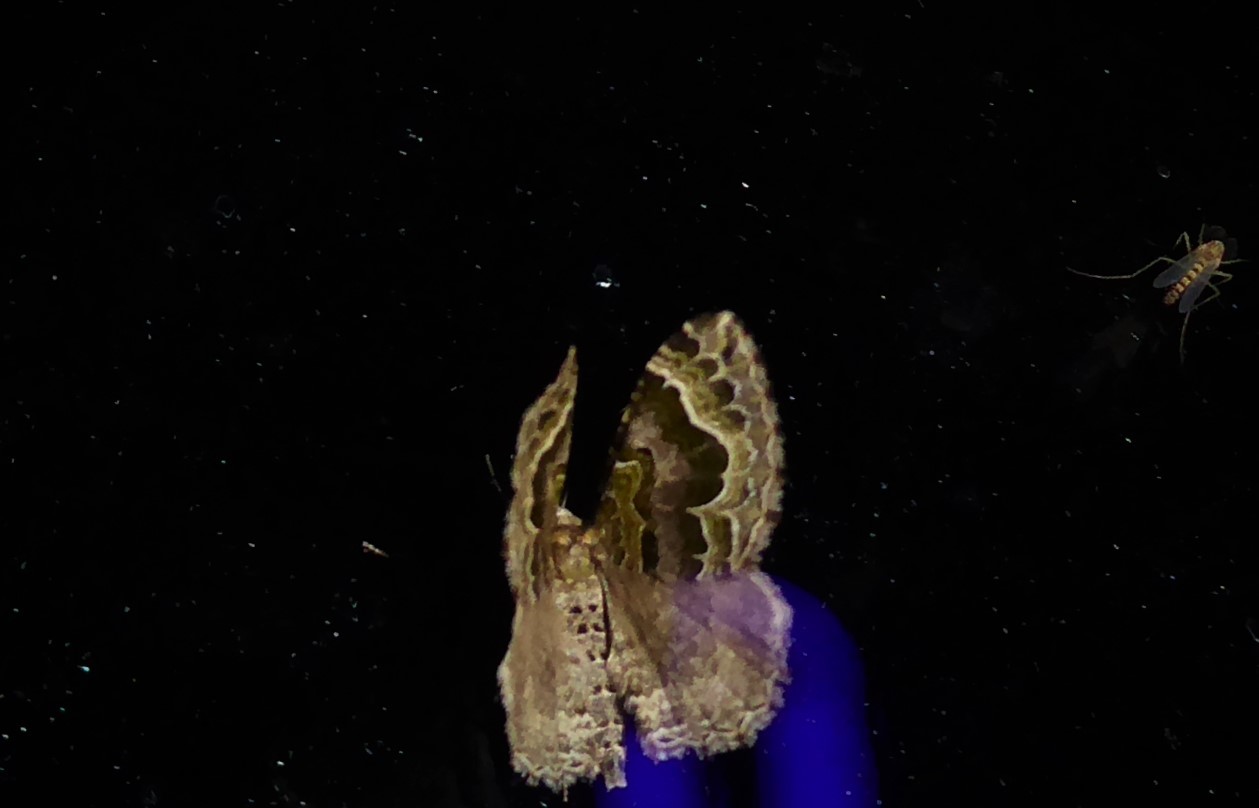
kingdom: Animalia
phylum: Arthropoda
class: Insecta
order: Lepidoptera
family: Geometridae
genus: Hydriomena
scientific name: Hydriomena rixata
